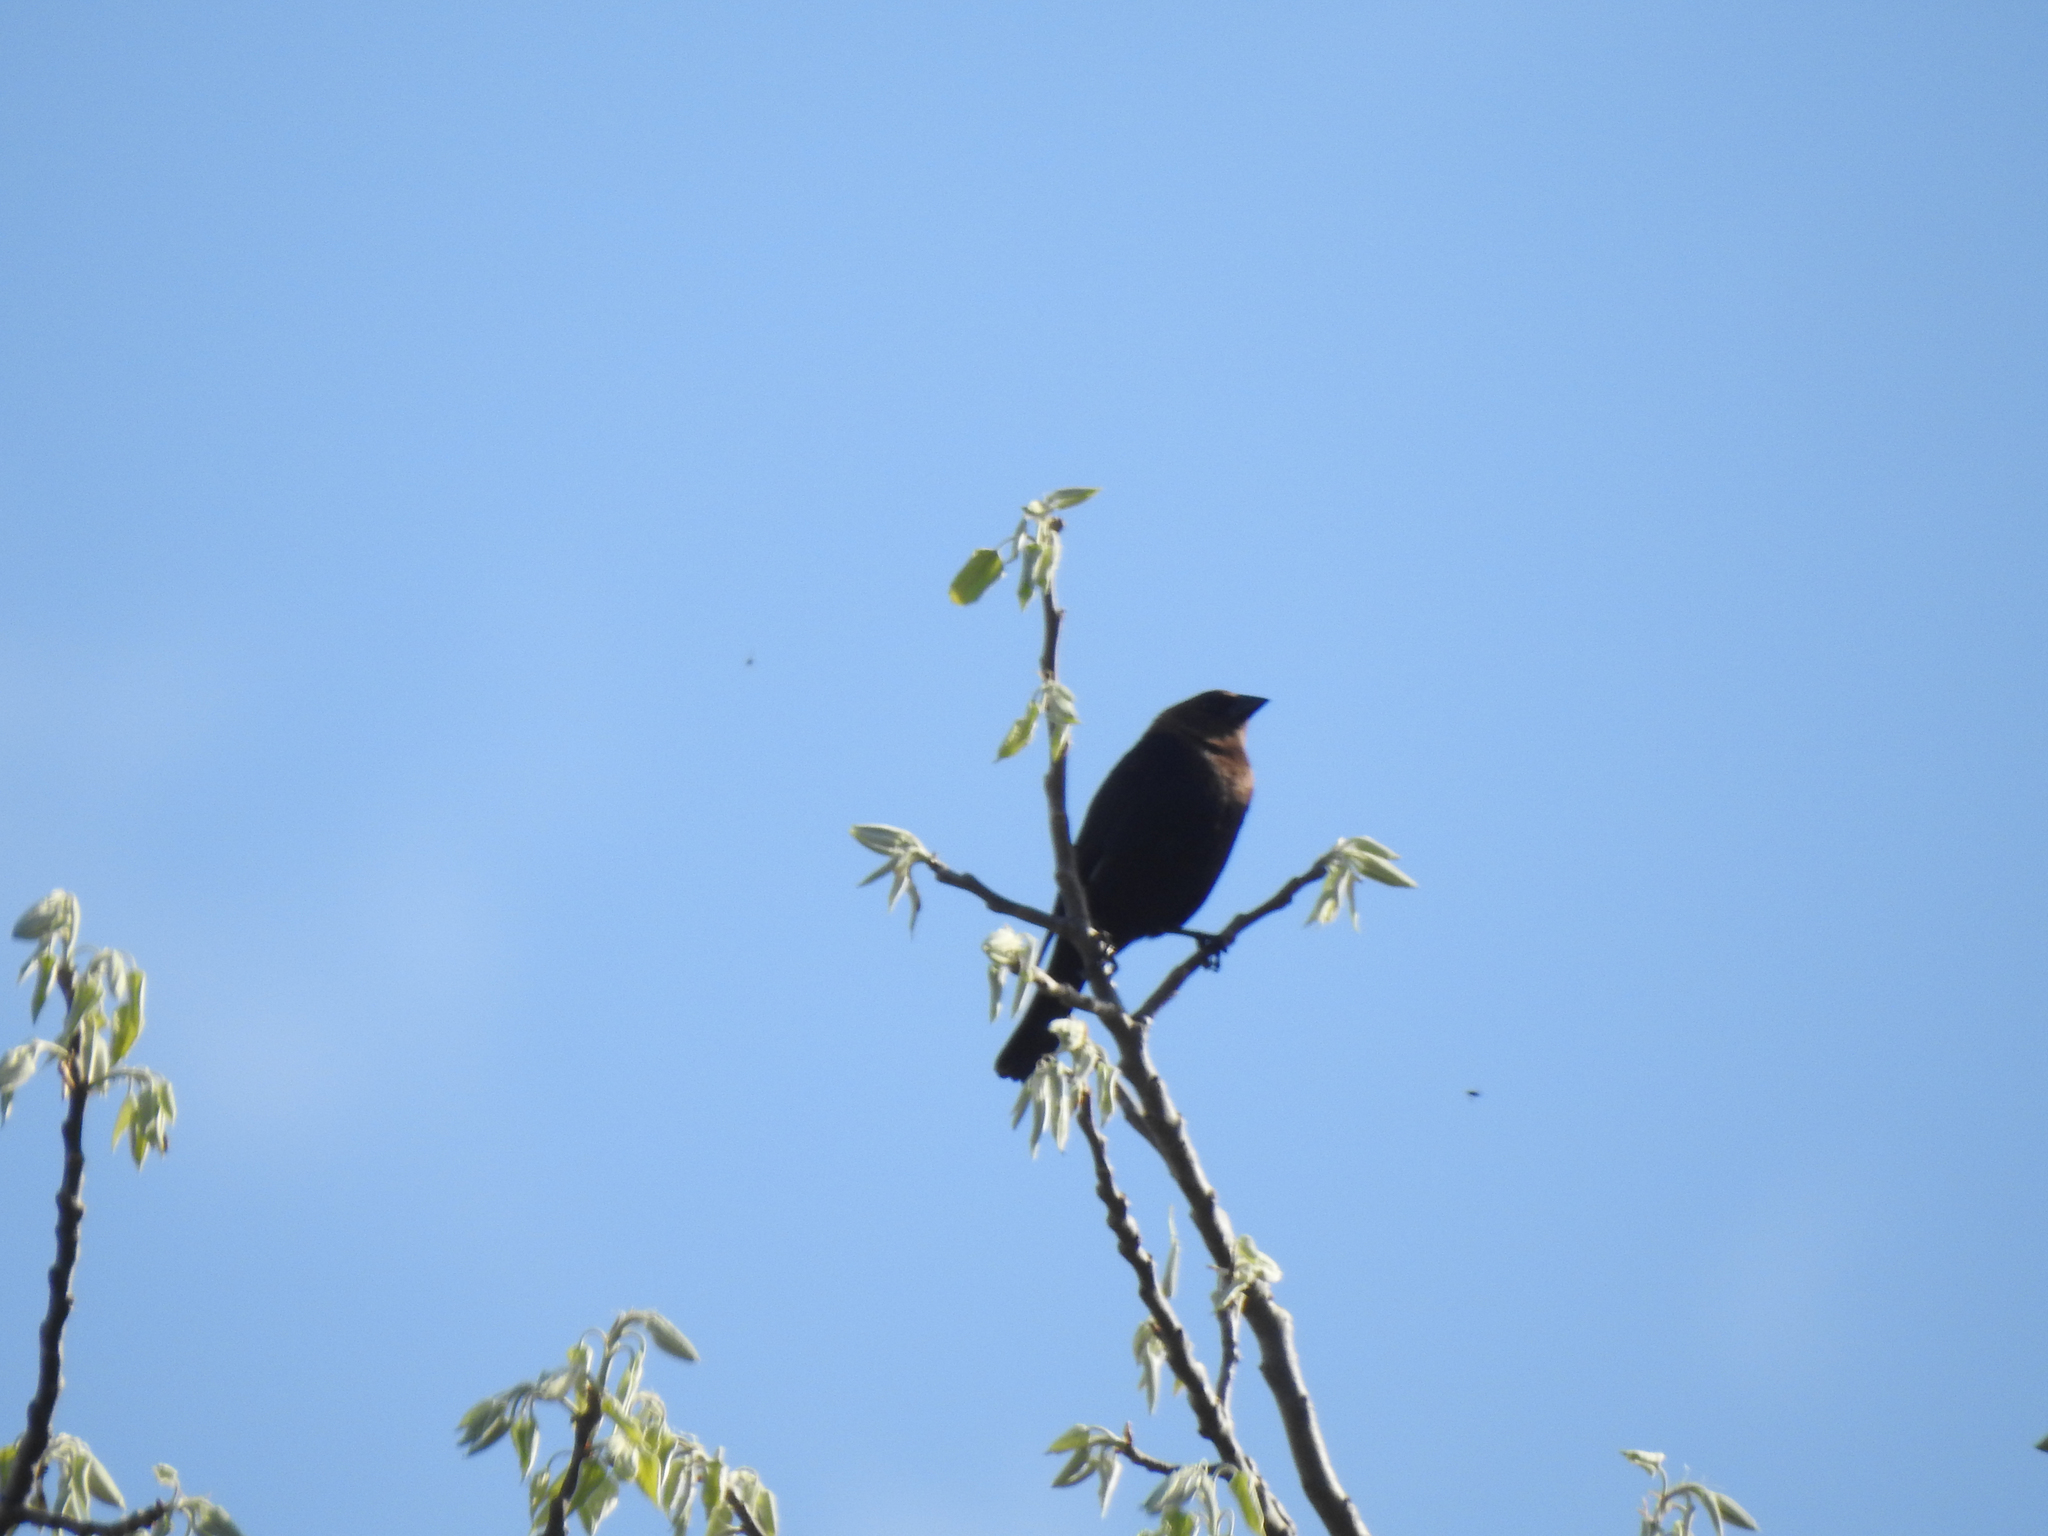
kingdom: Animalia
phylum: Chordata
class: Aves
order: Passeriformes
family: Icteridae
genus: Molothrus
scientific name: Molothrus ater
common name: Brown-headed cowbird
